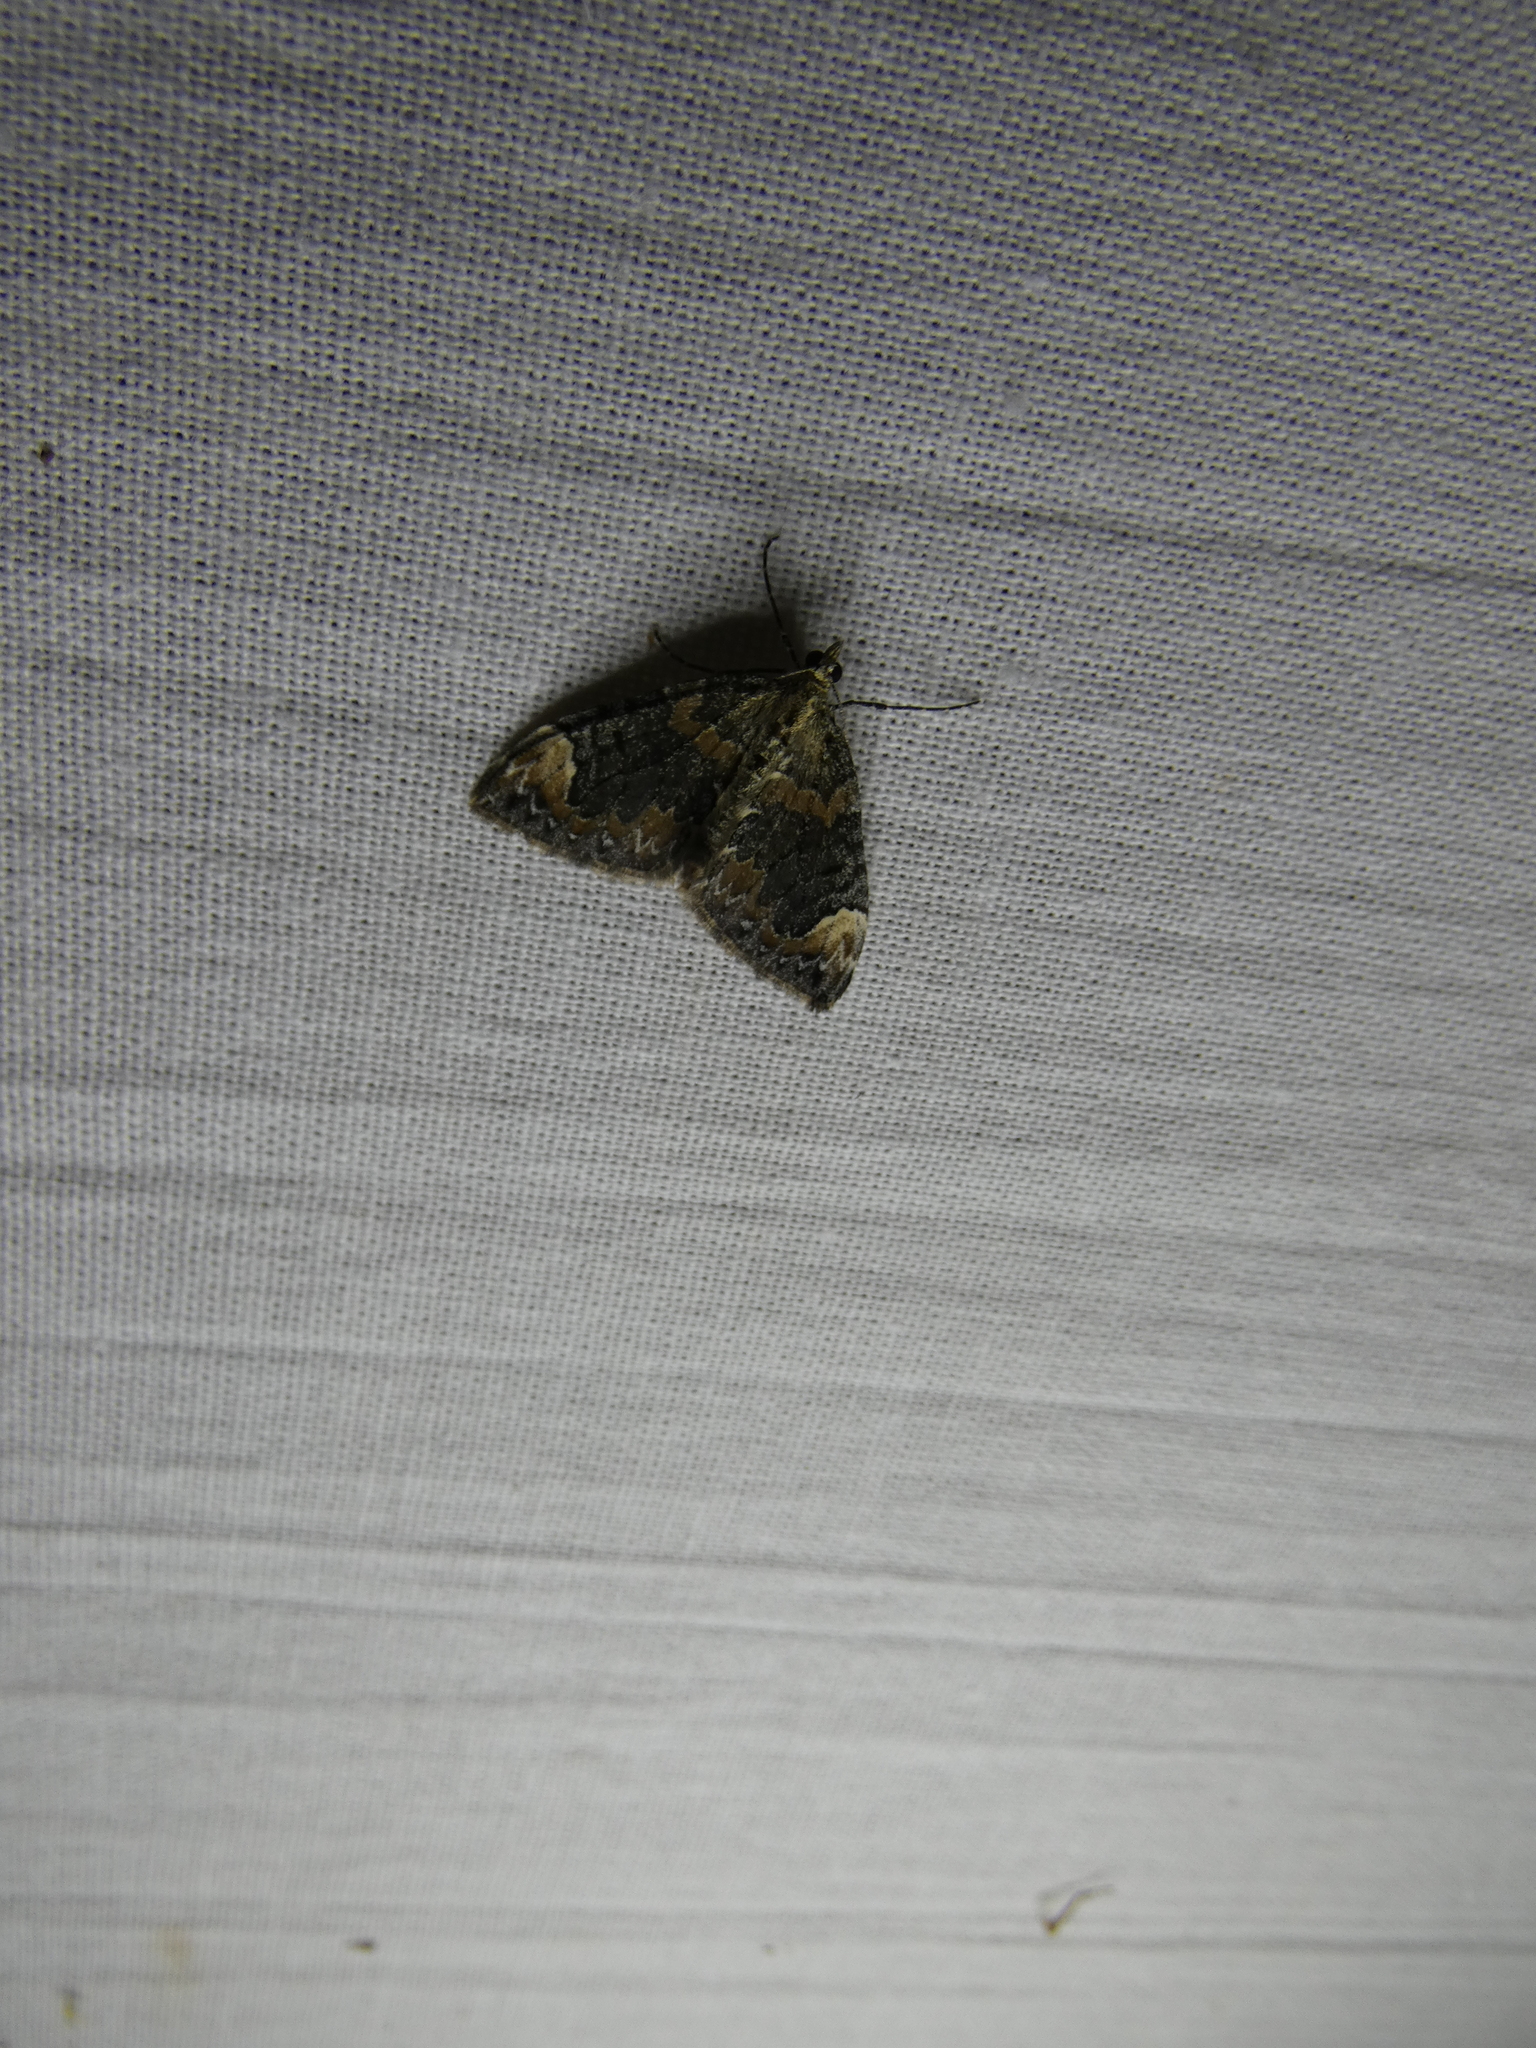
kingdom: Animalia
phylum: Arthropoda
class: Insecta
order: Lepidoptera
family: Geometridae
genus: Dysstroma
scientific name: Dysstroma citrata
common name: Dark marbled carpet
